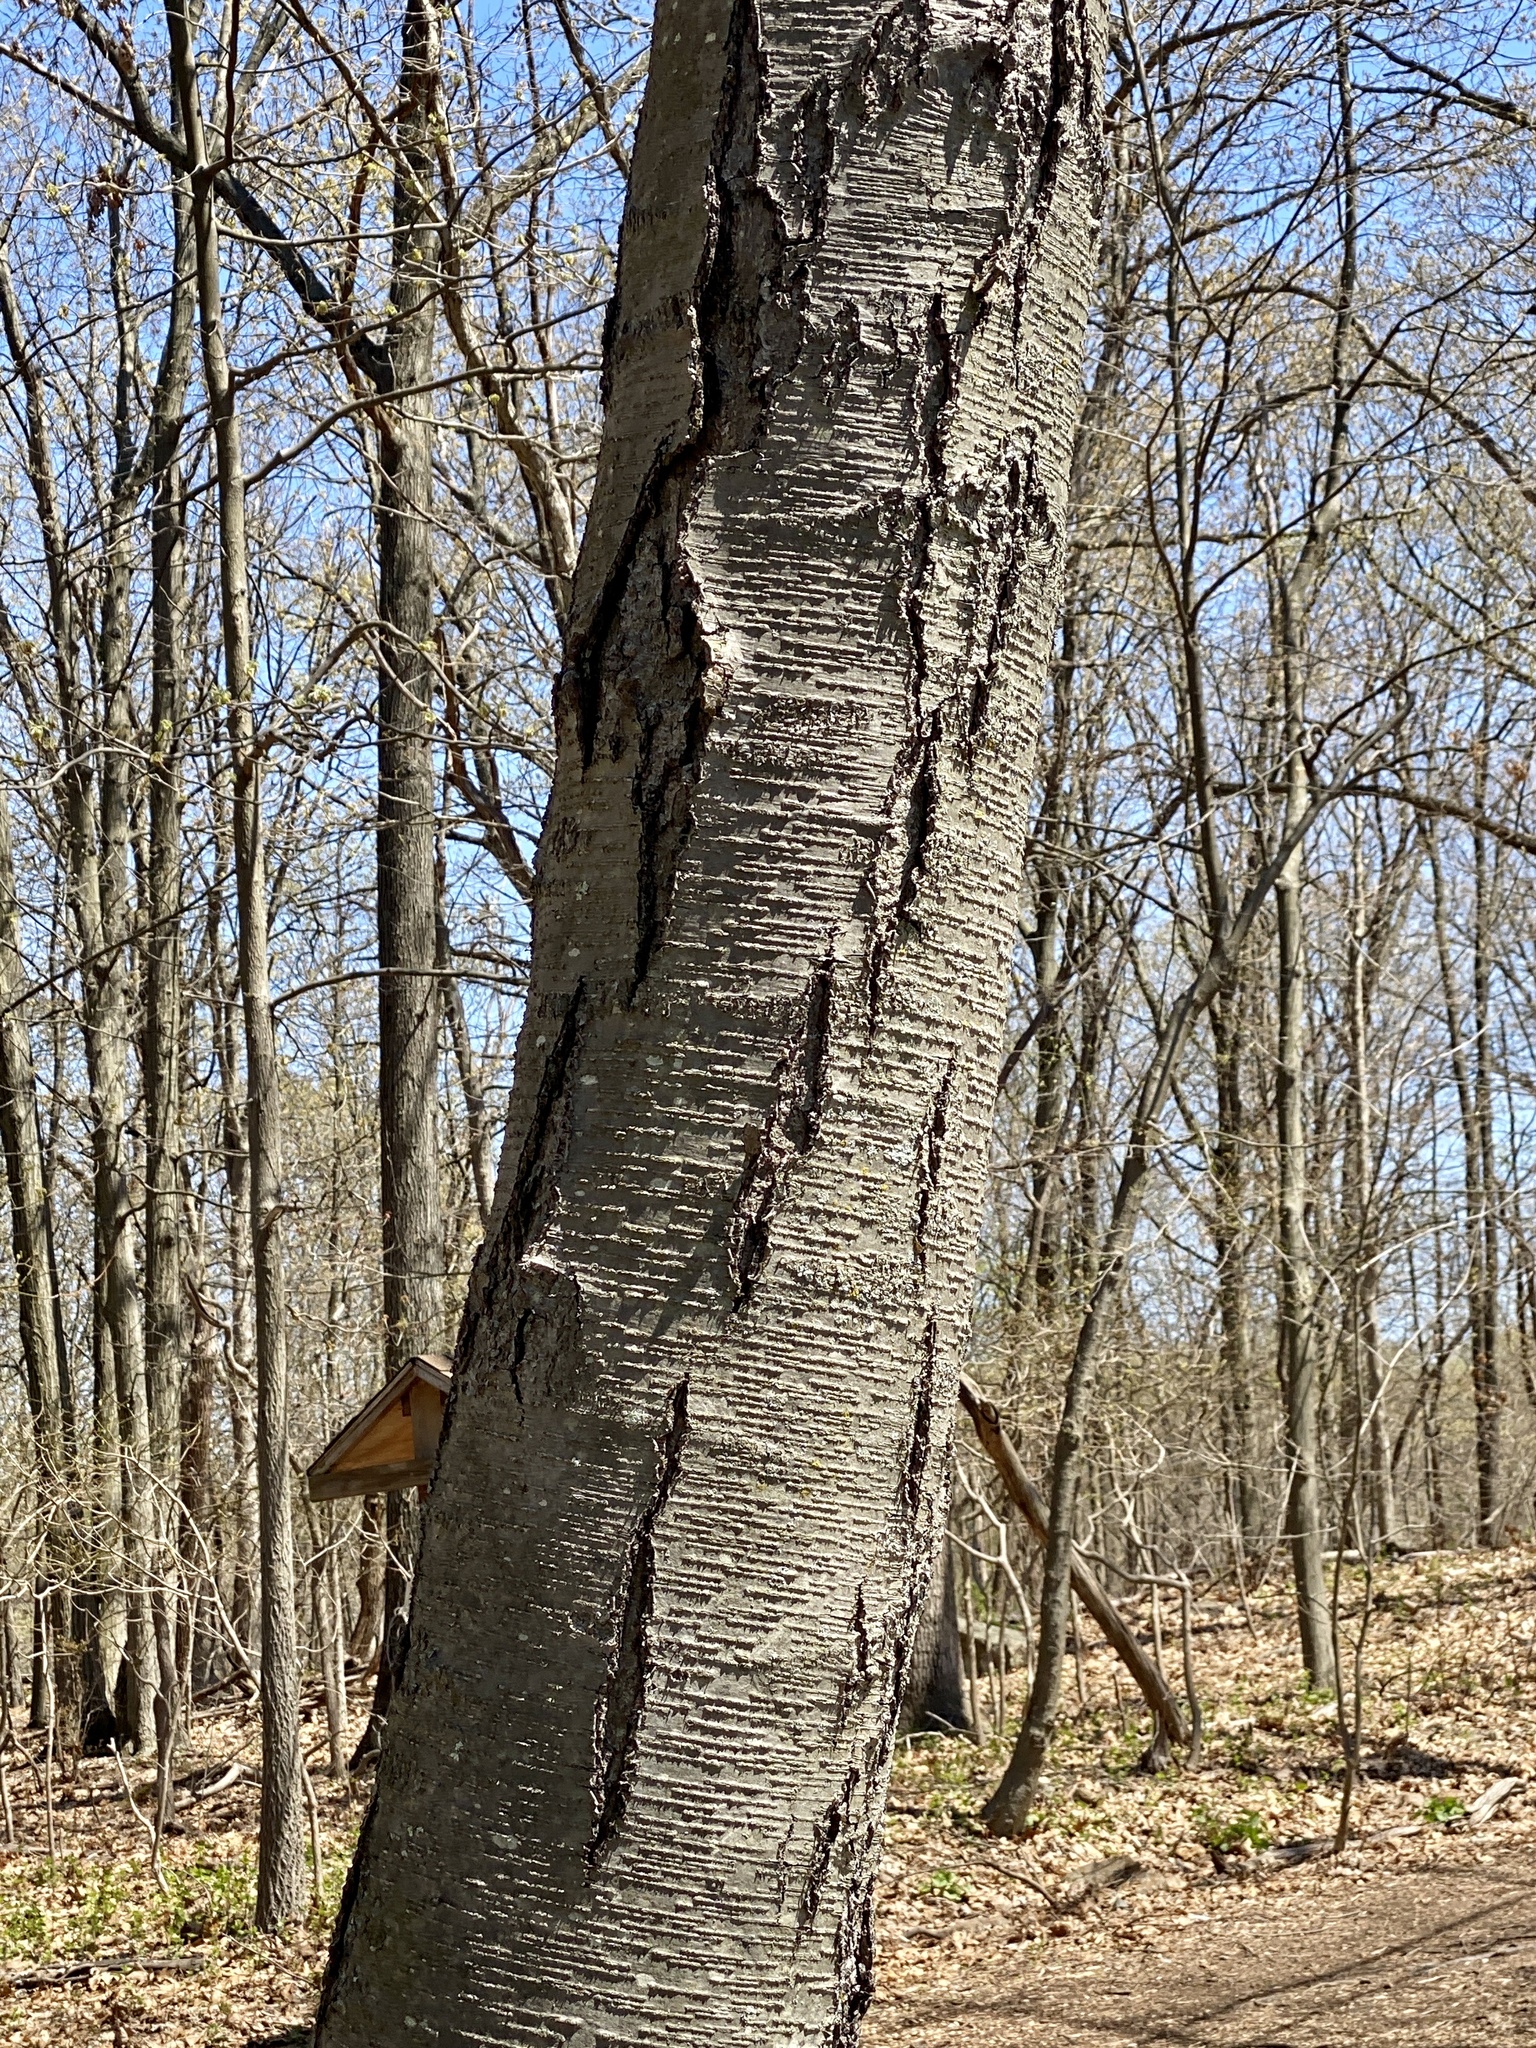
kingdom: Plantae
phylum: Tracheophyta
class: Magnoliopsida
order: Fagales
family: Betulaceae
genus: Betula
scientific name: Betula lenta
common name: Black birch
